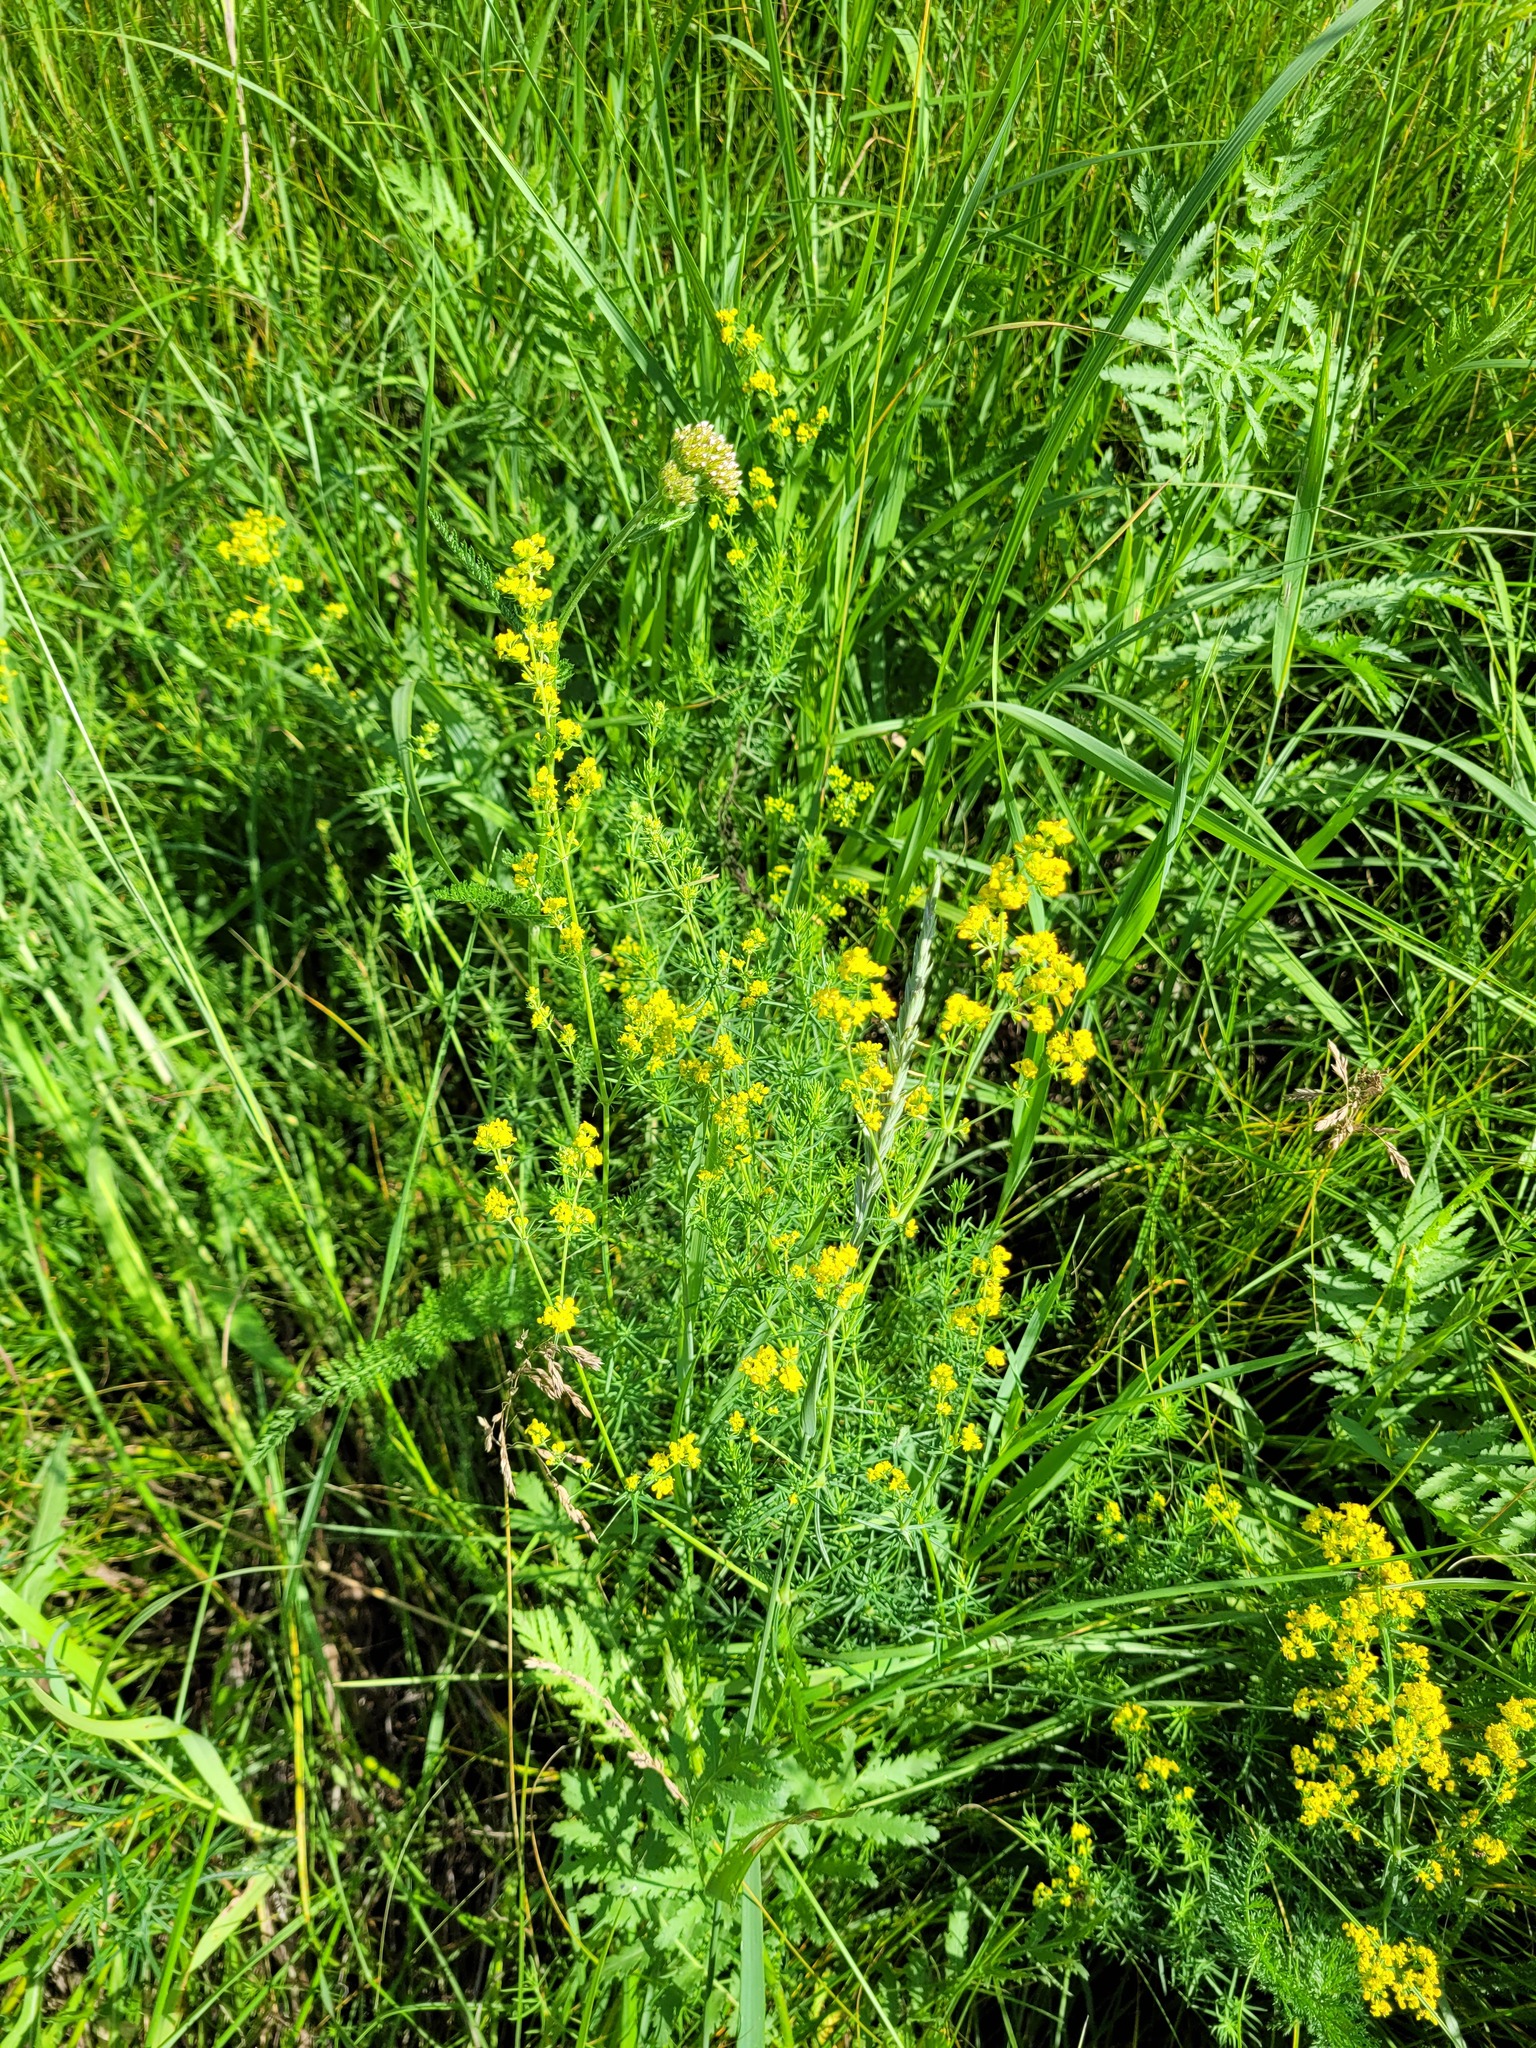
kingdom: Plantae
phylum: Tracheophyta
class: Magnoliopsida
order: Gentianales
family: Rubiaceae
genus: Galium
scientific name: Galium verum
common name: Lady's bedstraw
